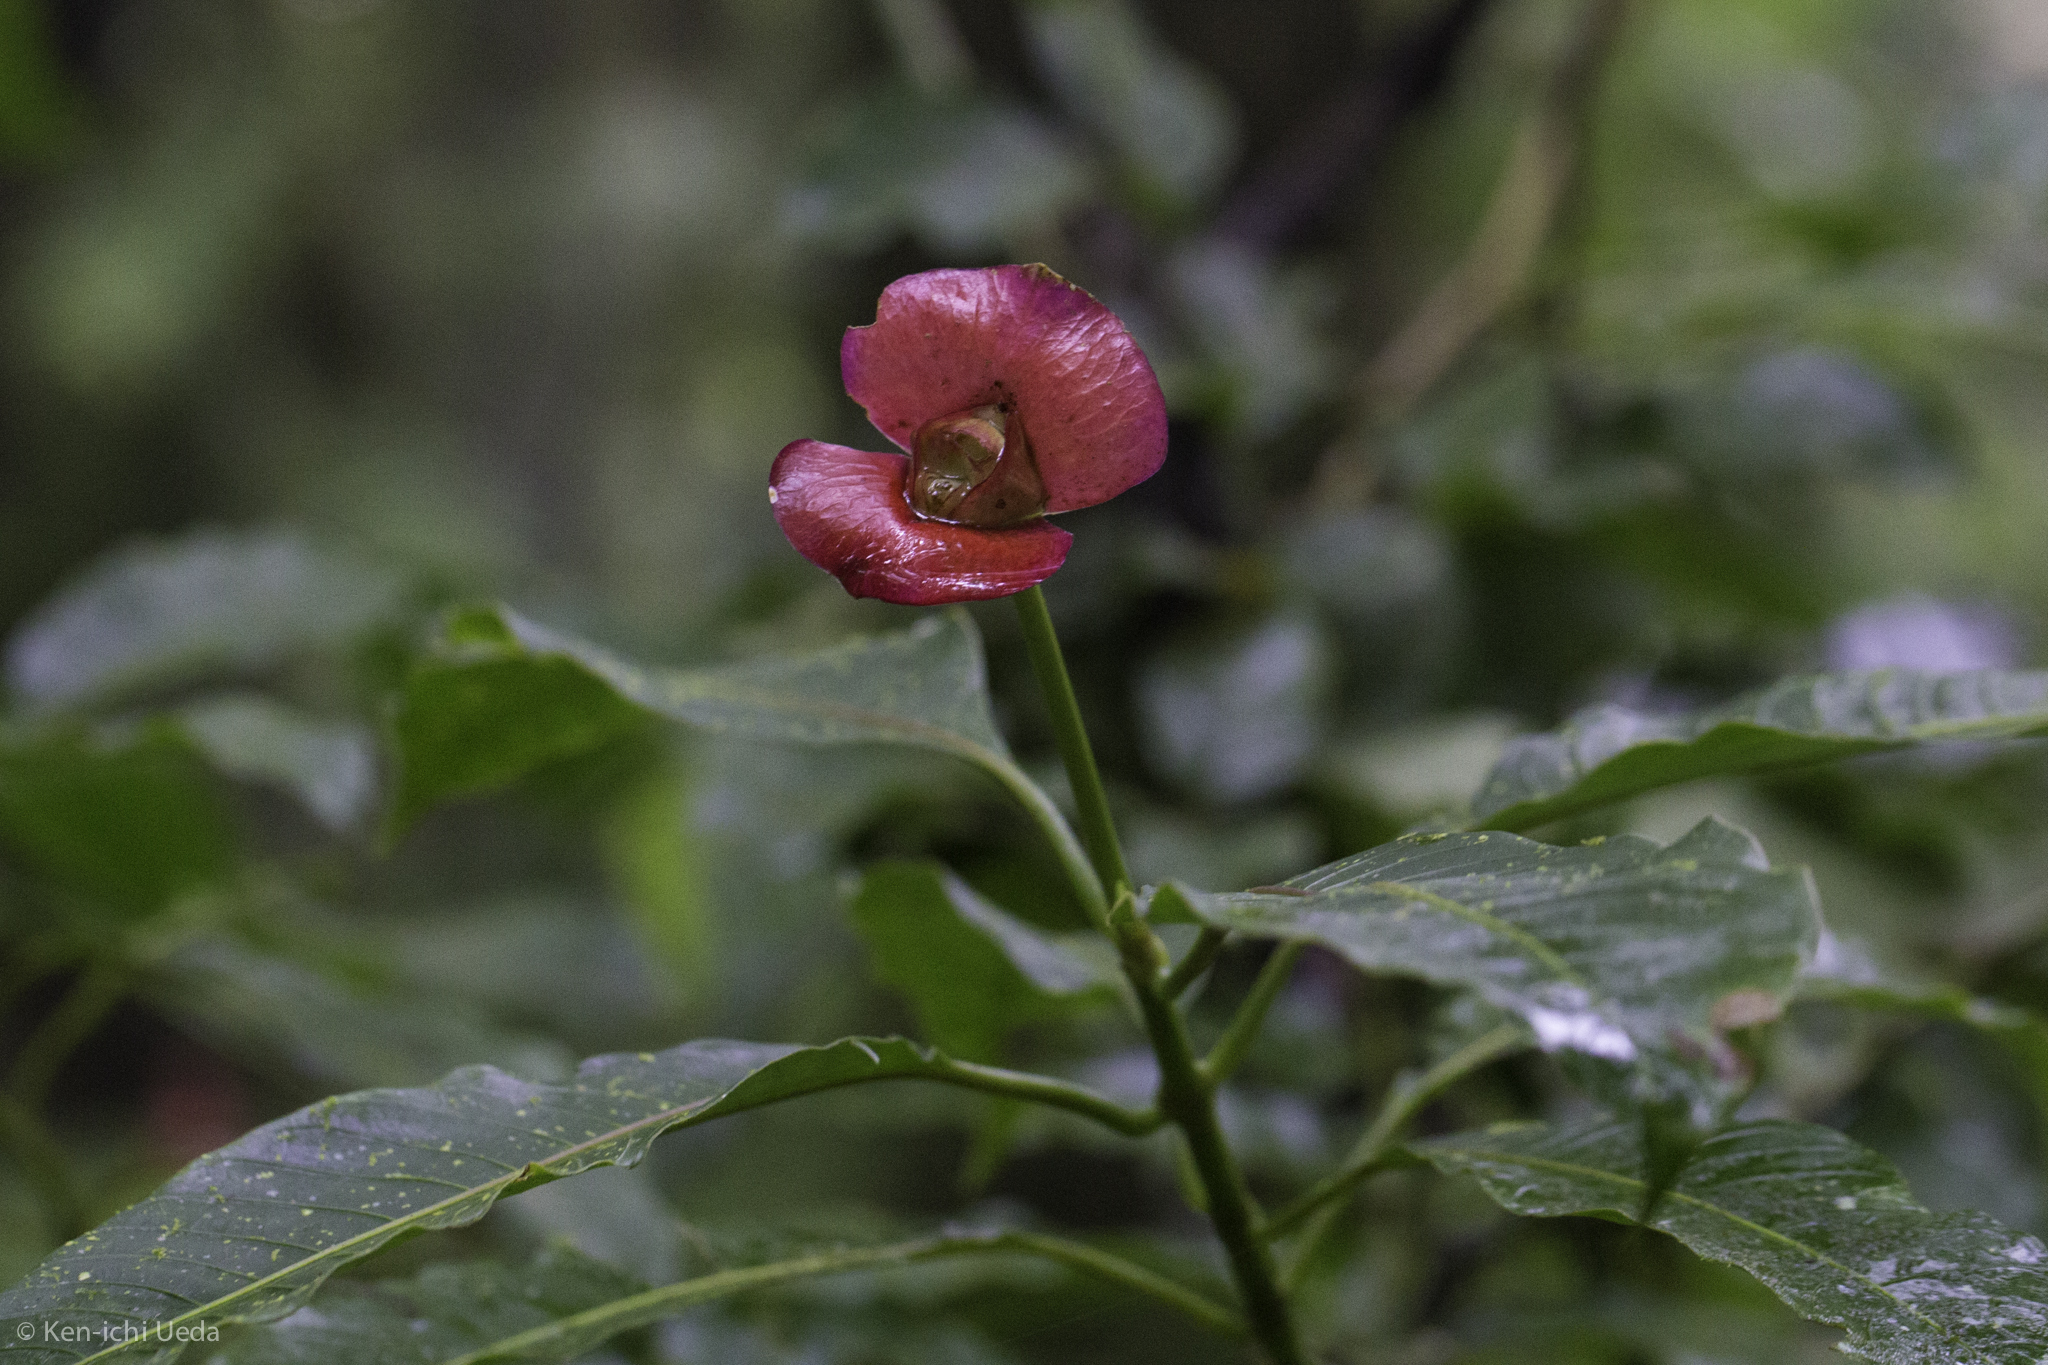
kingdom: Plantae
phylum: Tracheophyta
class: Magnoliopsida
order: Gentianales
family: Rubiaceae
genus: Palicourea
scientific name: Palicourea elata
